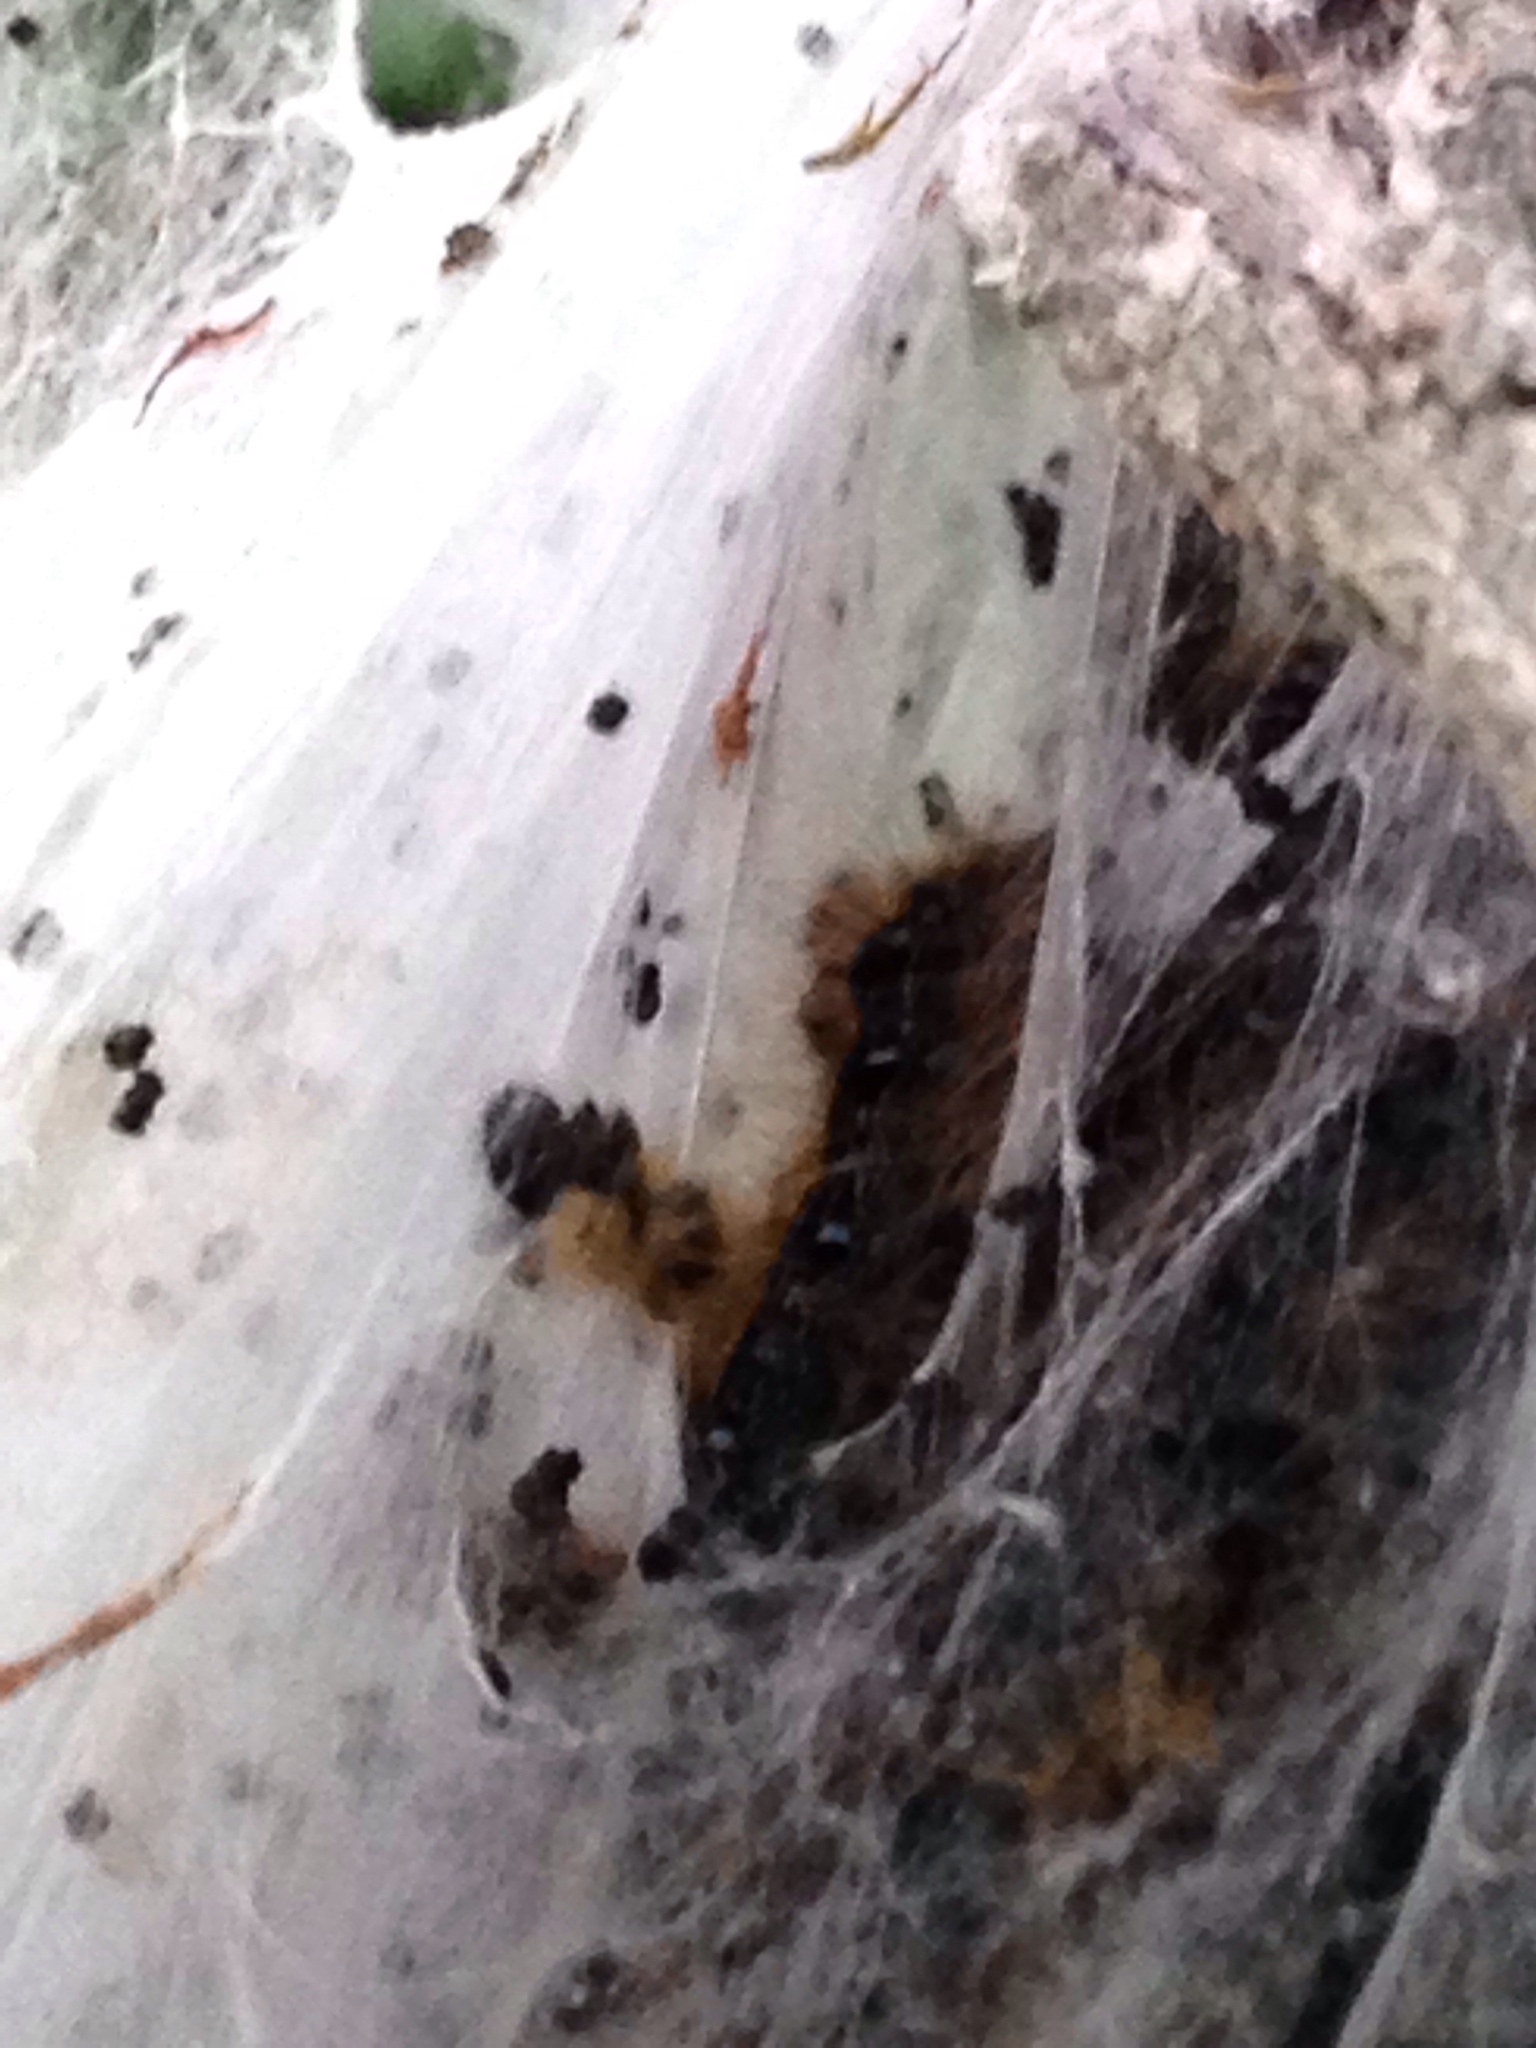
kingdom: Animalia
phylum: Arthropoda
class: Insecta
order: Lepidoptera
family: Lasiocampidae
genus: Malacosoma
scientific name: Malacosoma americana
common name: Eastern tent caterpillar moth
